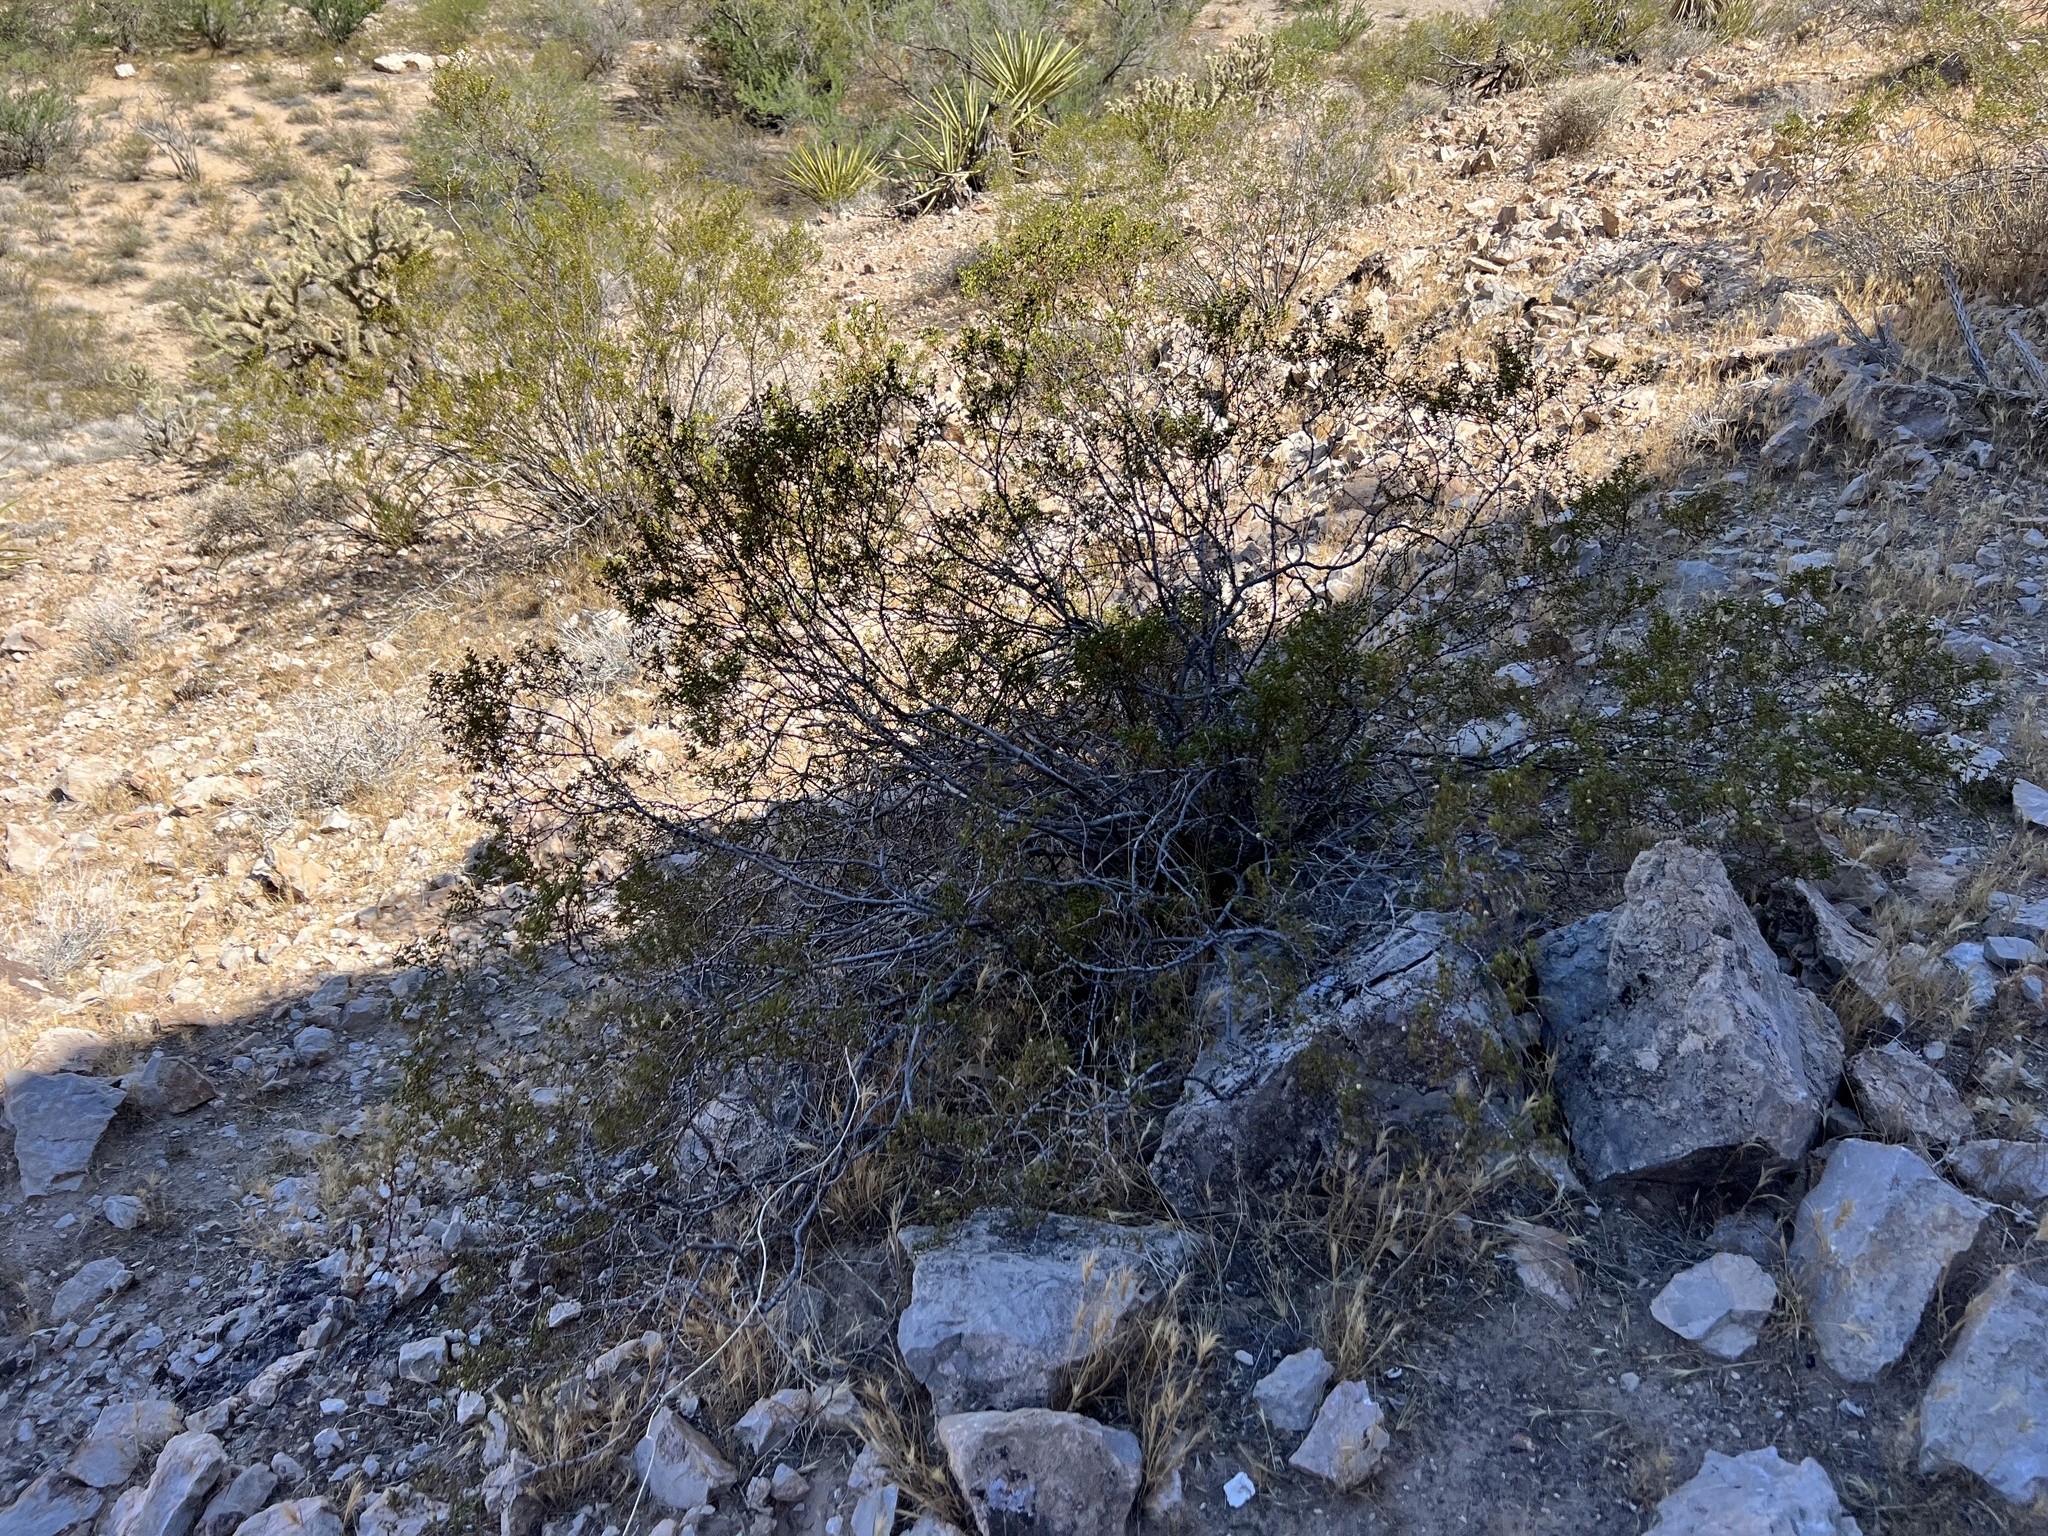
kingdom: Plantae
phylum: Tracheophyta
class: Magnoliopsida
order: Zygophyllales
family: Zygophyllaceae
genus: Larrea
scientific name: Larrea tridentata
